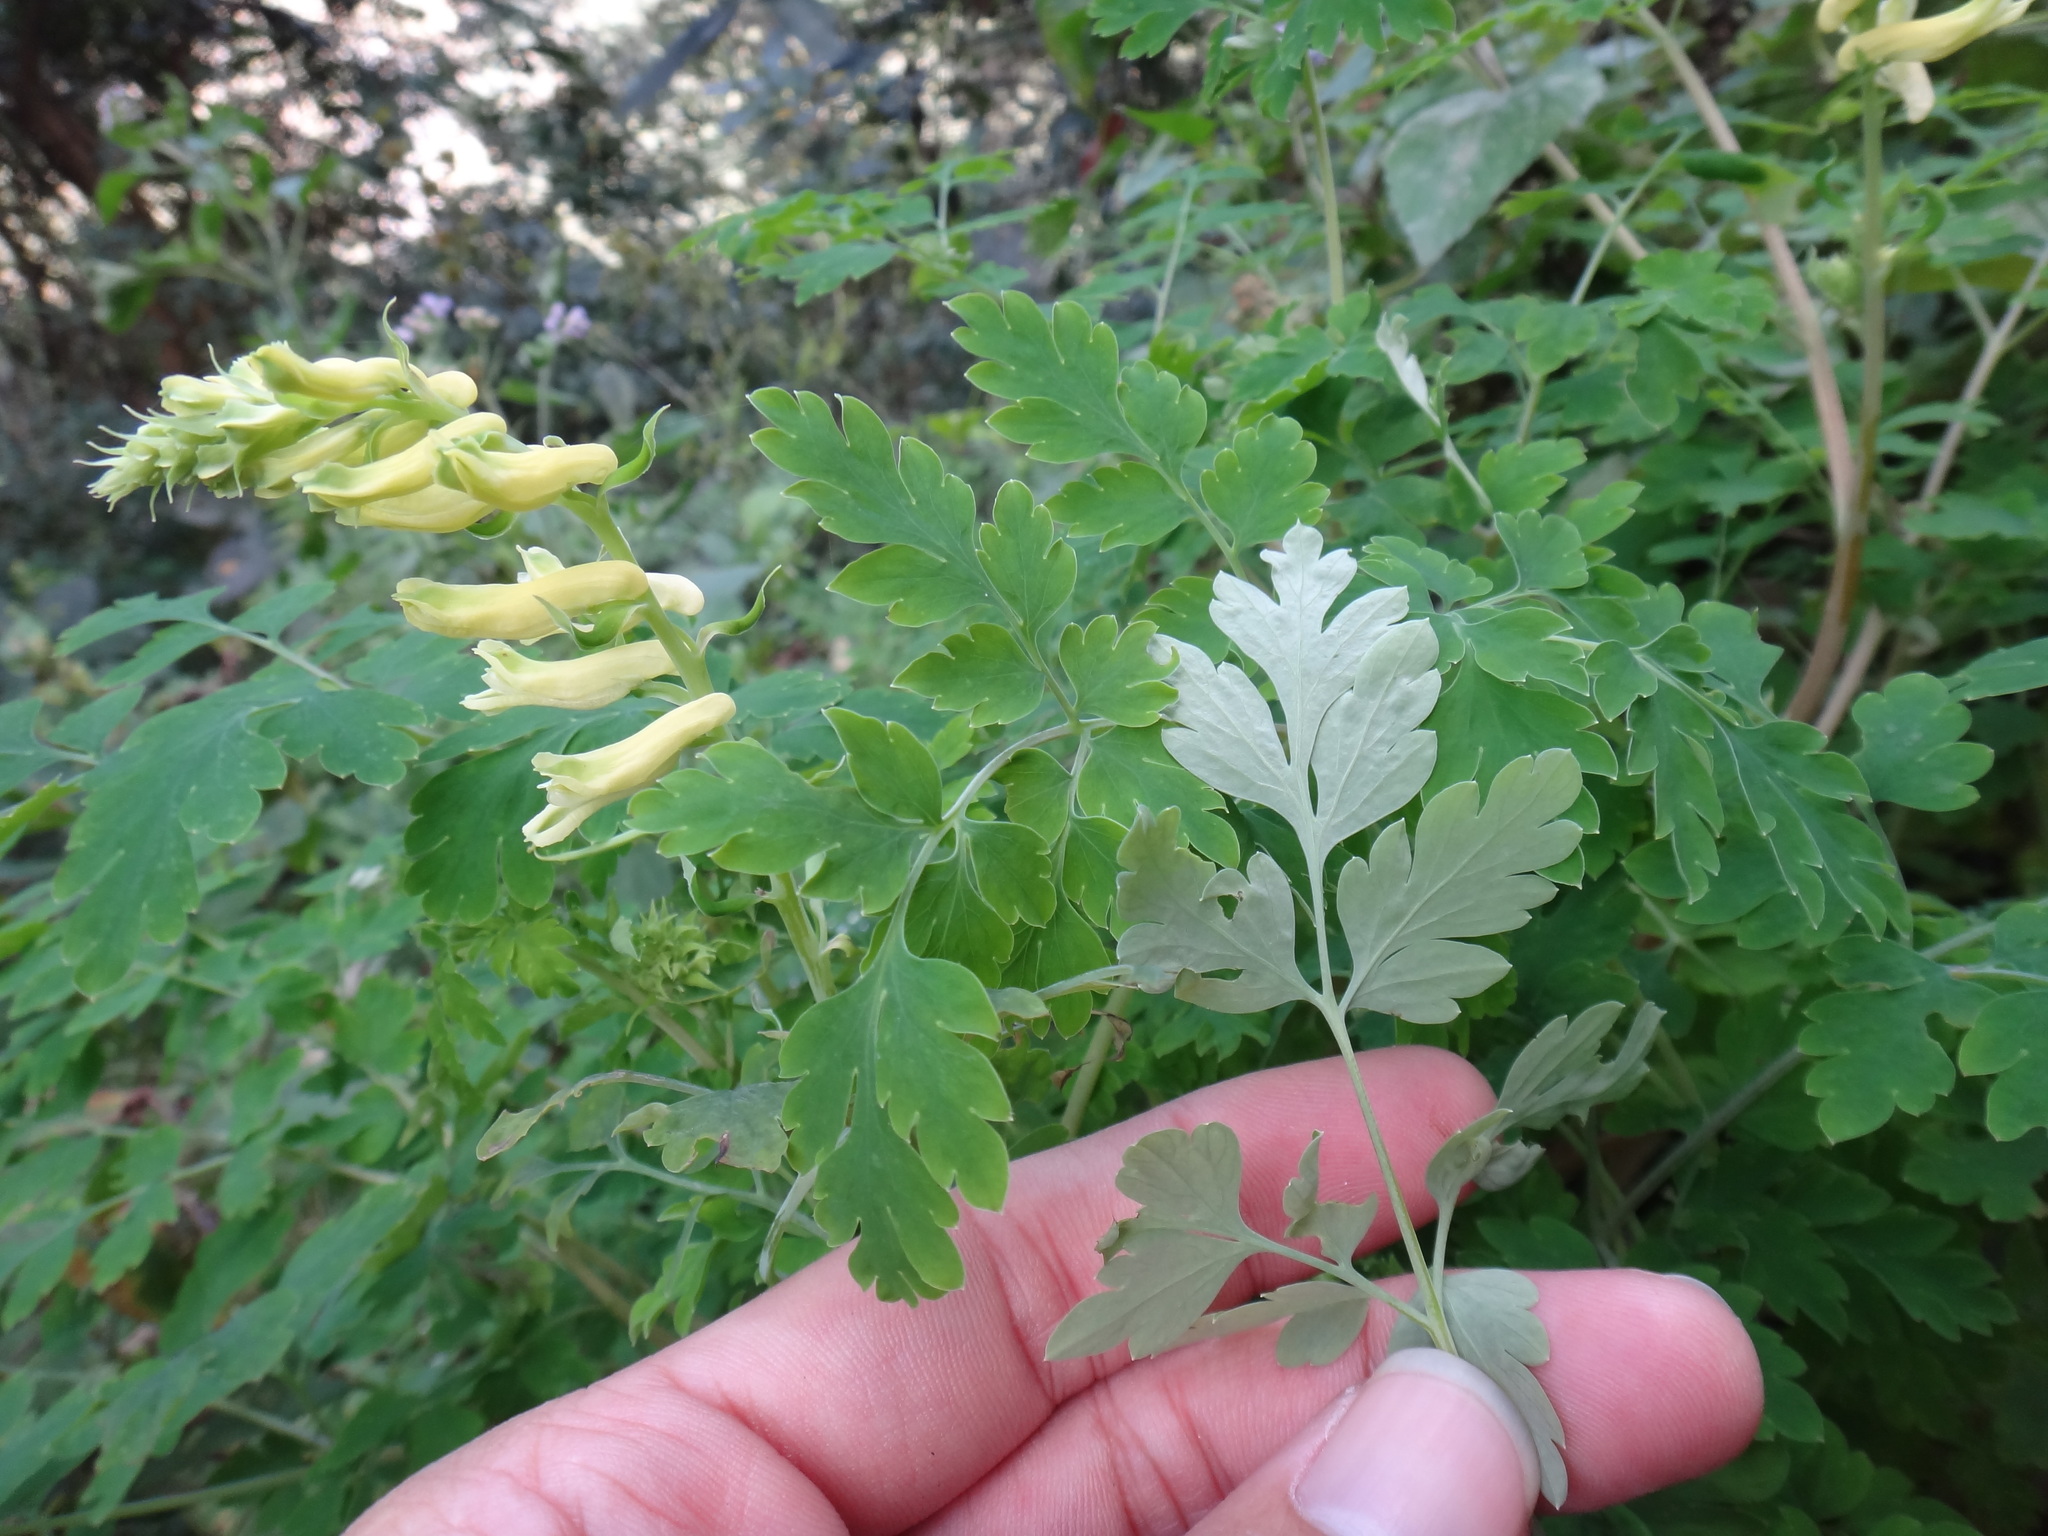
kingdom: Plantae
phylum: Tracheophyta
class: Magnoliopsida
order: Ranunculales
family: Papaveraceae
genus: Corydalis
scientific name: Corydalis balansae
